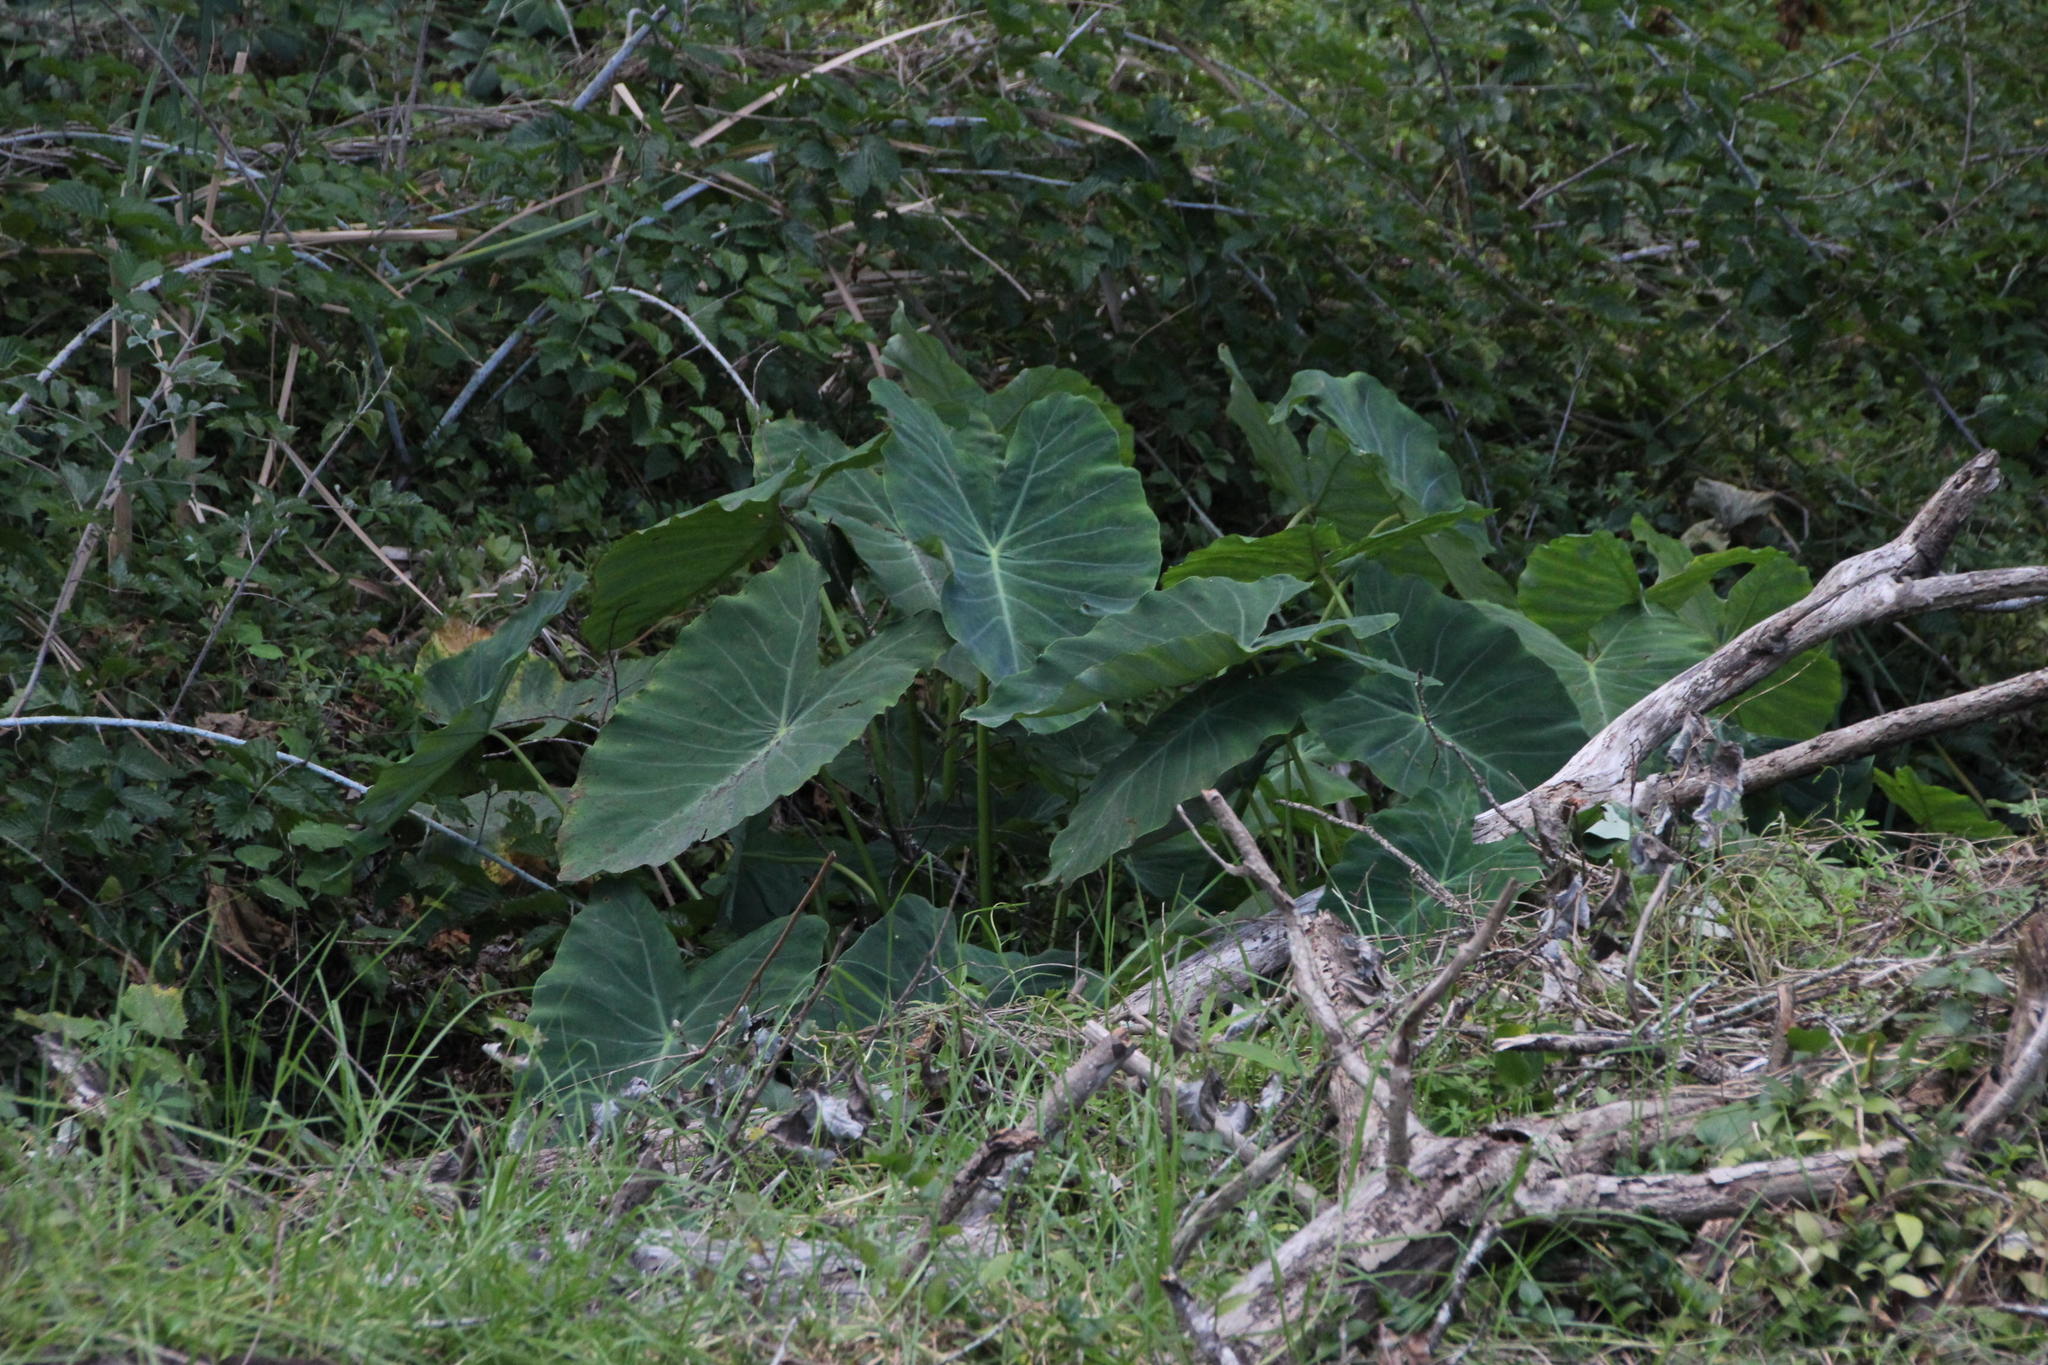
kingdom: Plantae
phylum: Tracheophyta
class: Liliopsida
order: Alismatales
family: Araceae
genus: Colocasia
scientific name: Colocasia esculenta
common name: Taro
